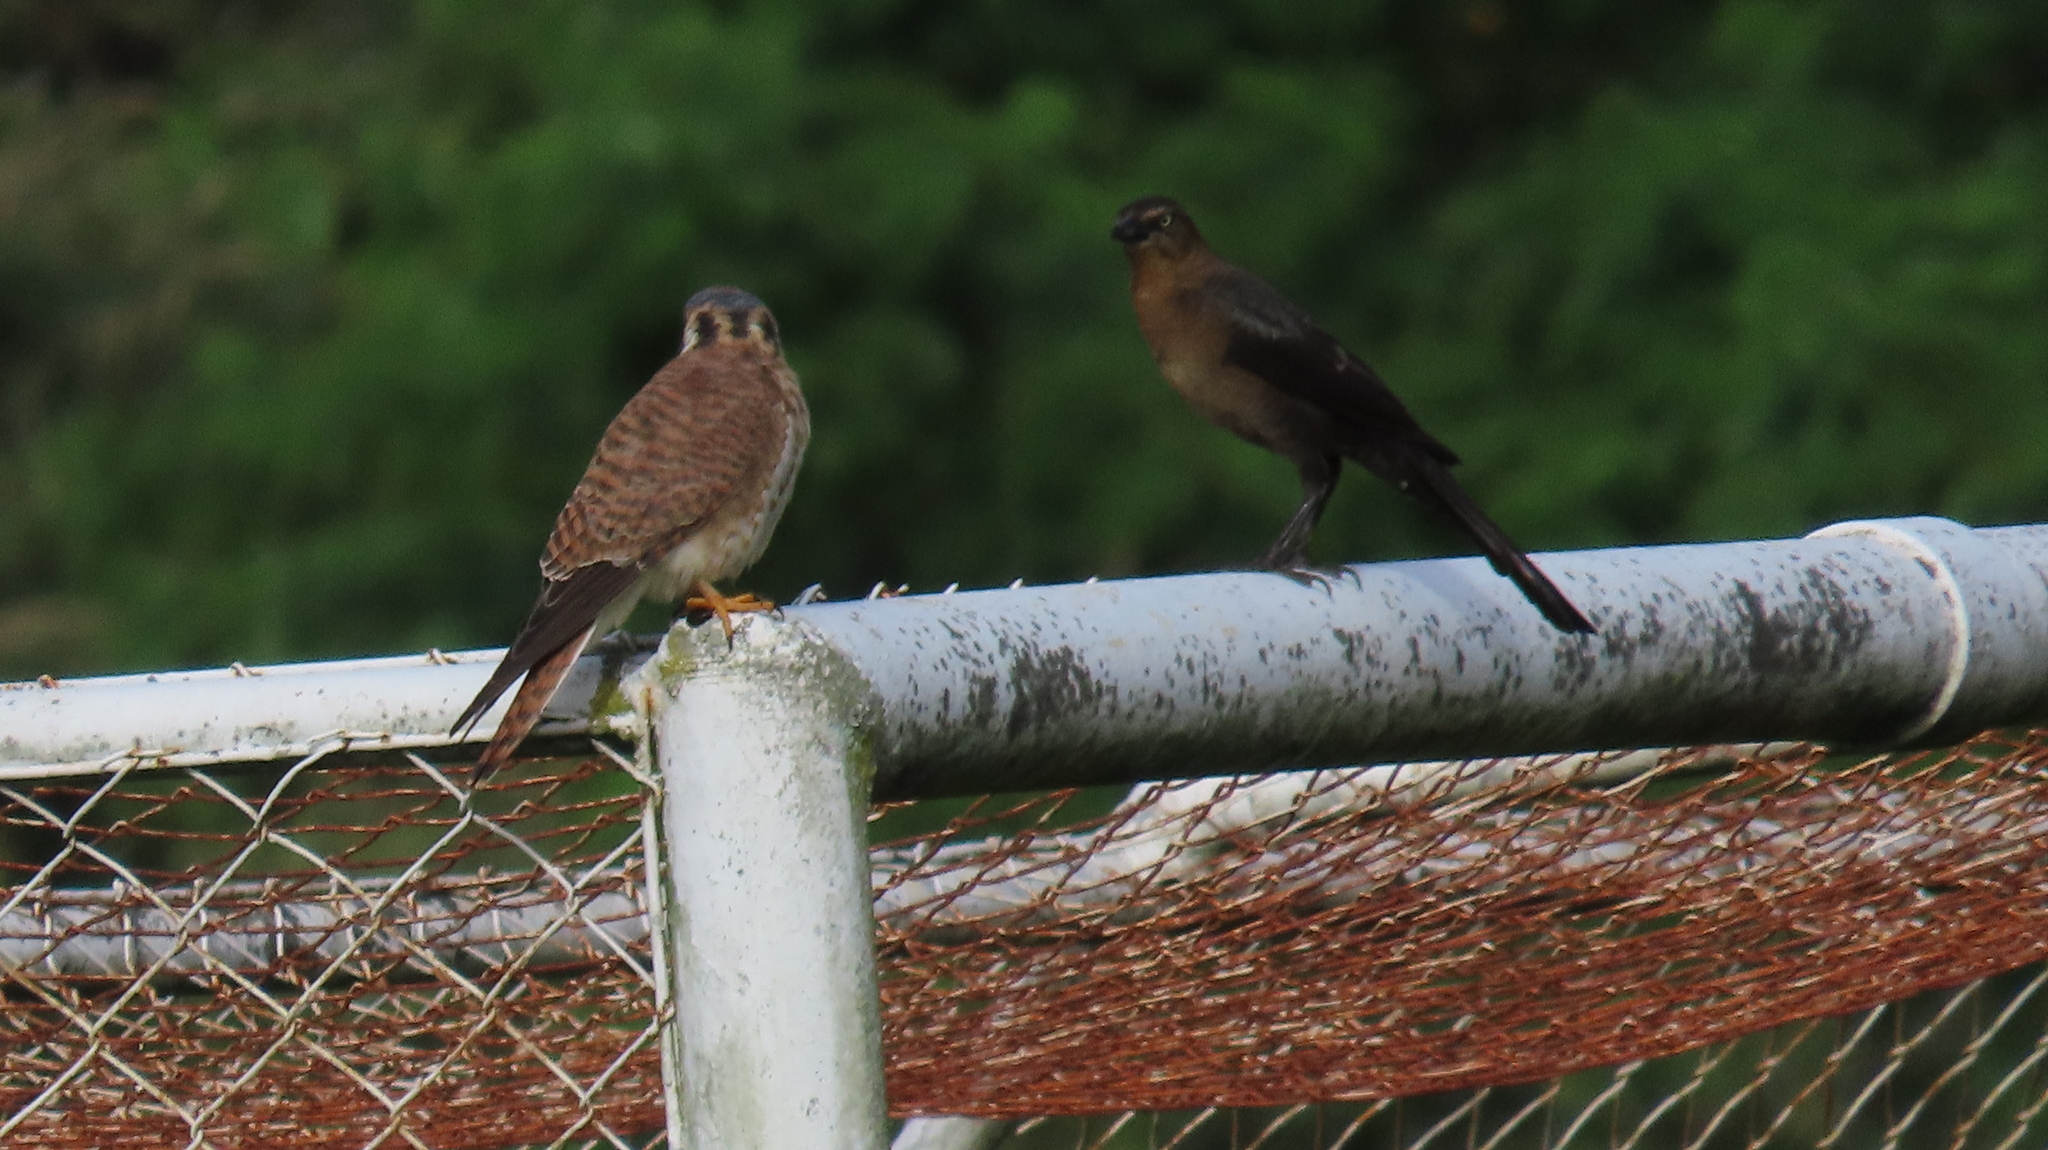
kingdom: Animalia
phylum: Chordata
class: Aves
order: Passeriformes
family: Icteridae
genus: Quiscalus
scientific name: Quiscalus mexicanus
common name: Great-tailed grackle
